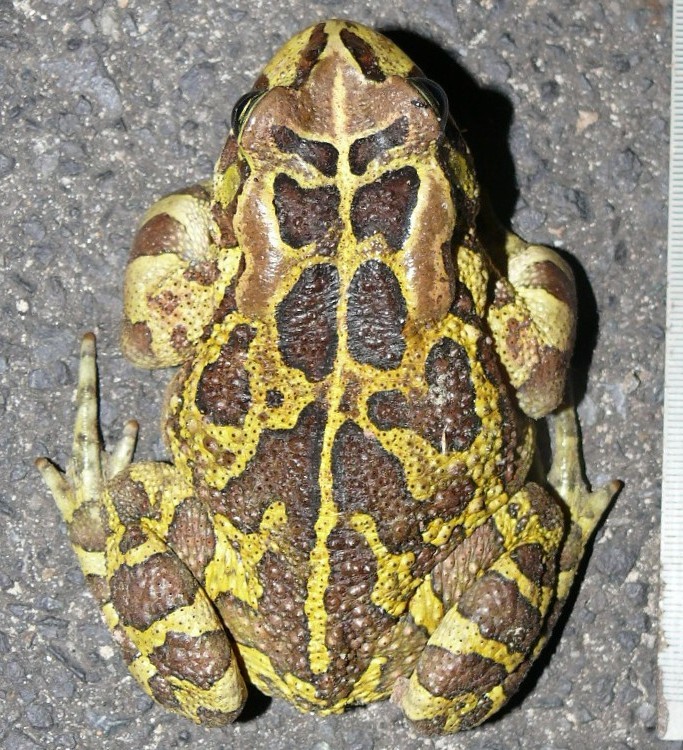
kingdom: Animalia
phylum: Chordata
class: Amphibia
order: Anura
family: Bufonidae
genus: Sclerophrys
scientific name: Sclerophrys pantherina
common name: Panther toad
